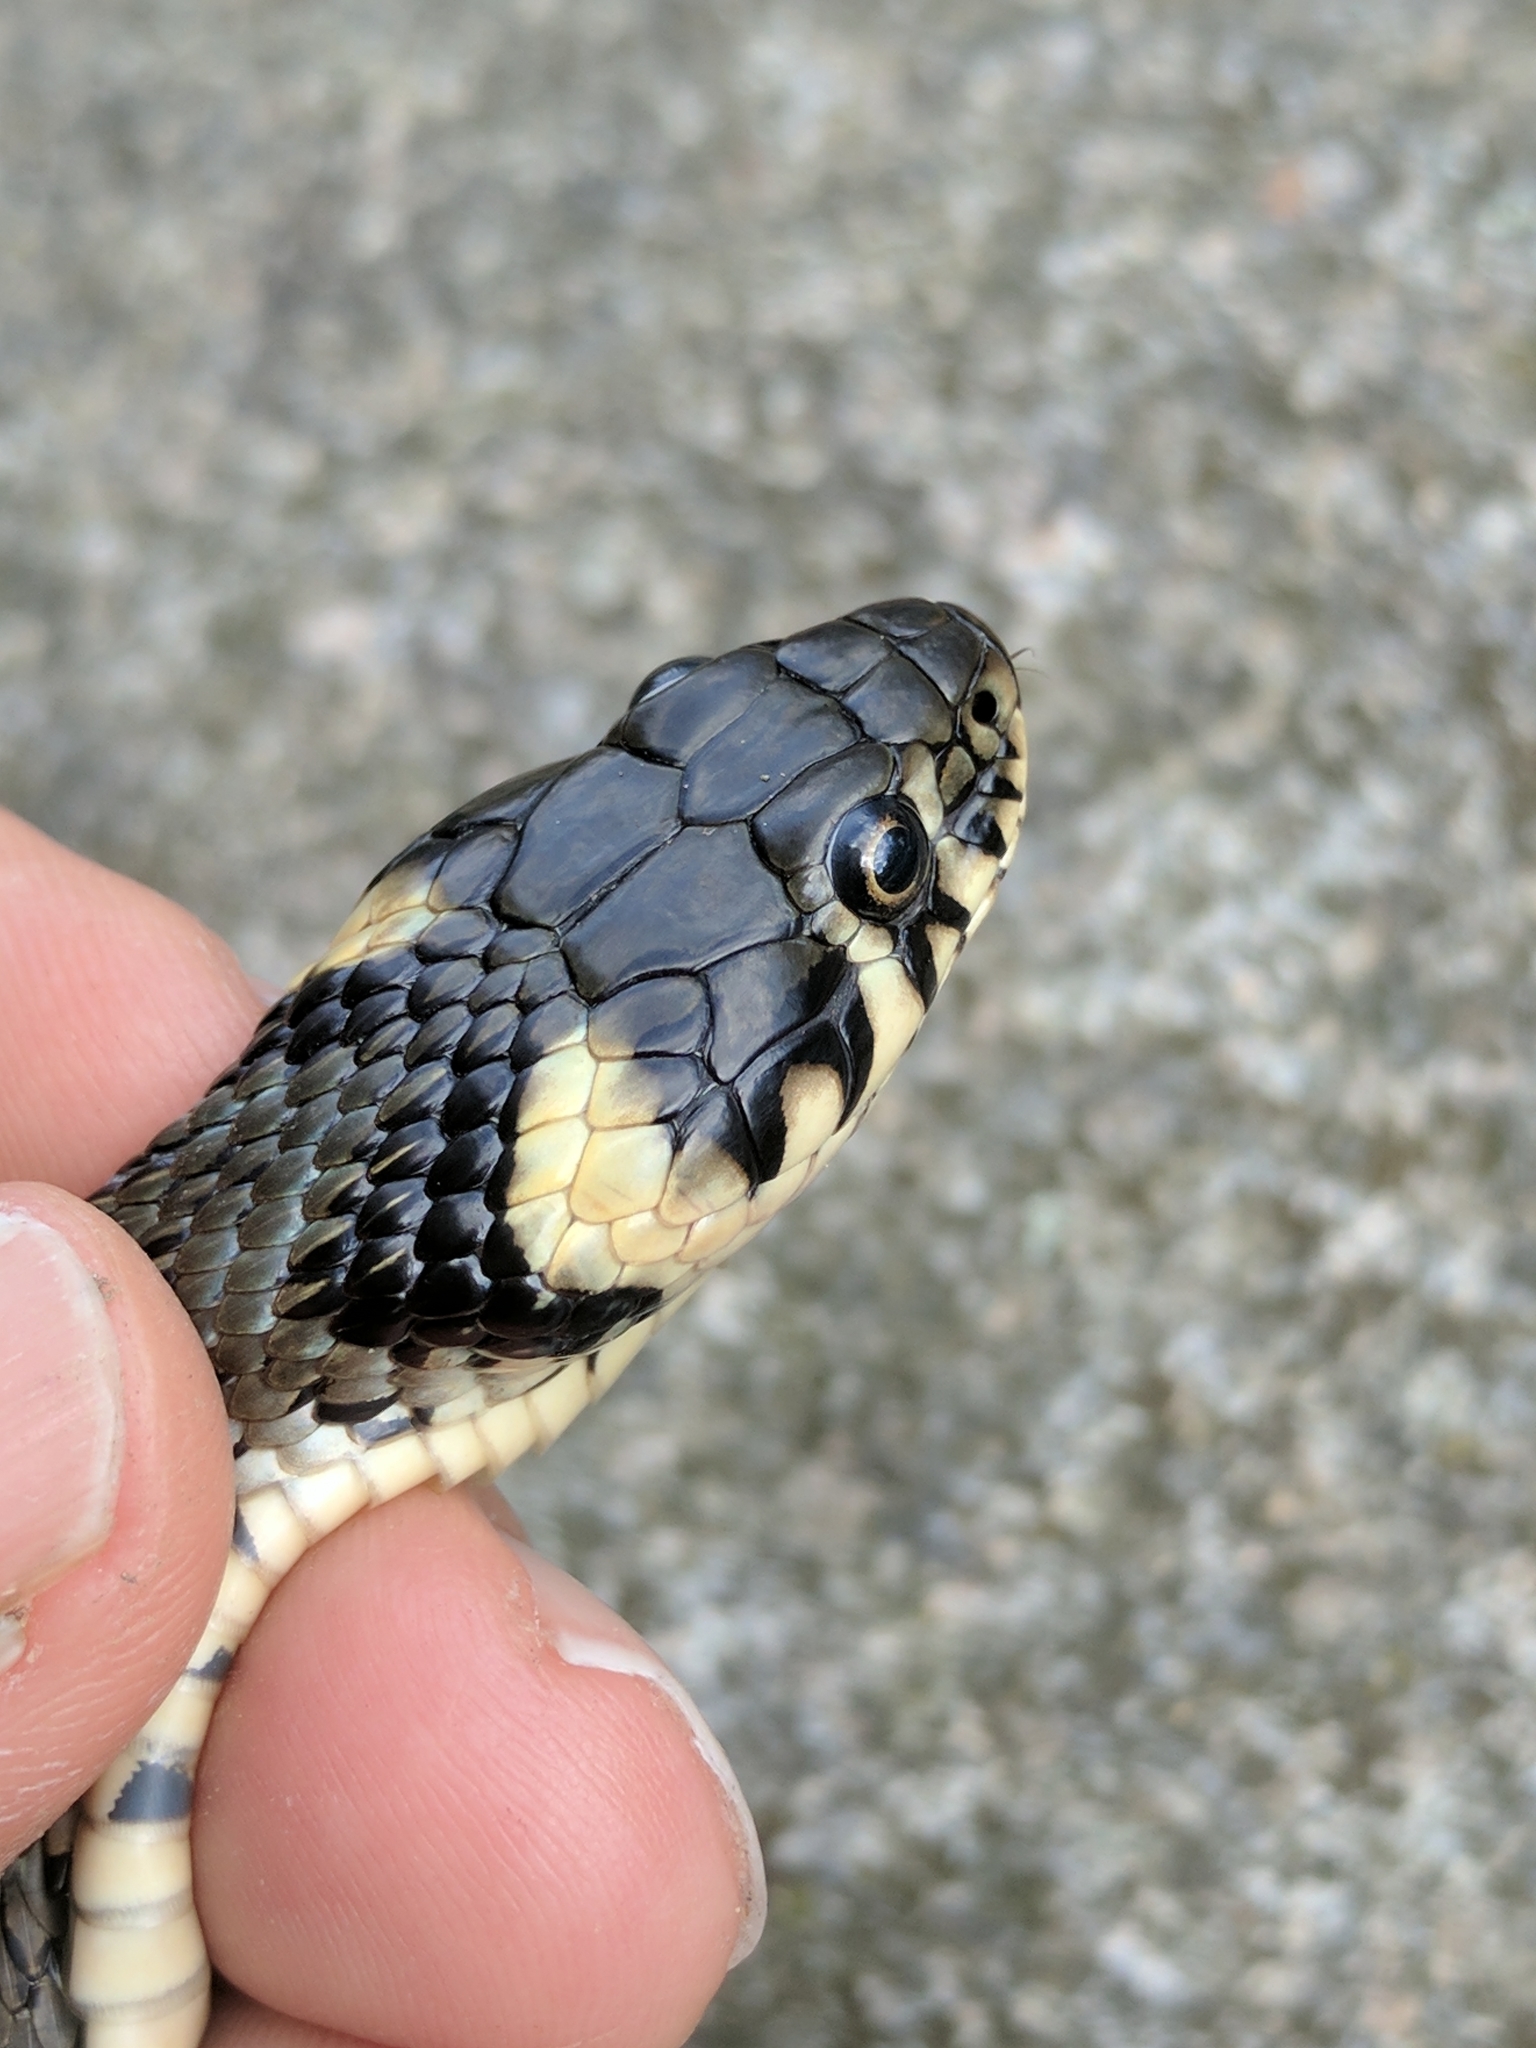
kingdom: Animalia
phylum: Chordata
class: Squamata
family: Colubridae
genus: Natrix
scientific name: Natrix natrix
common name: Grass snake
